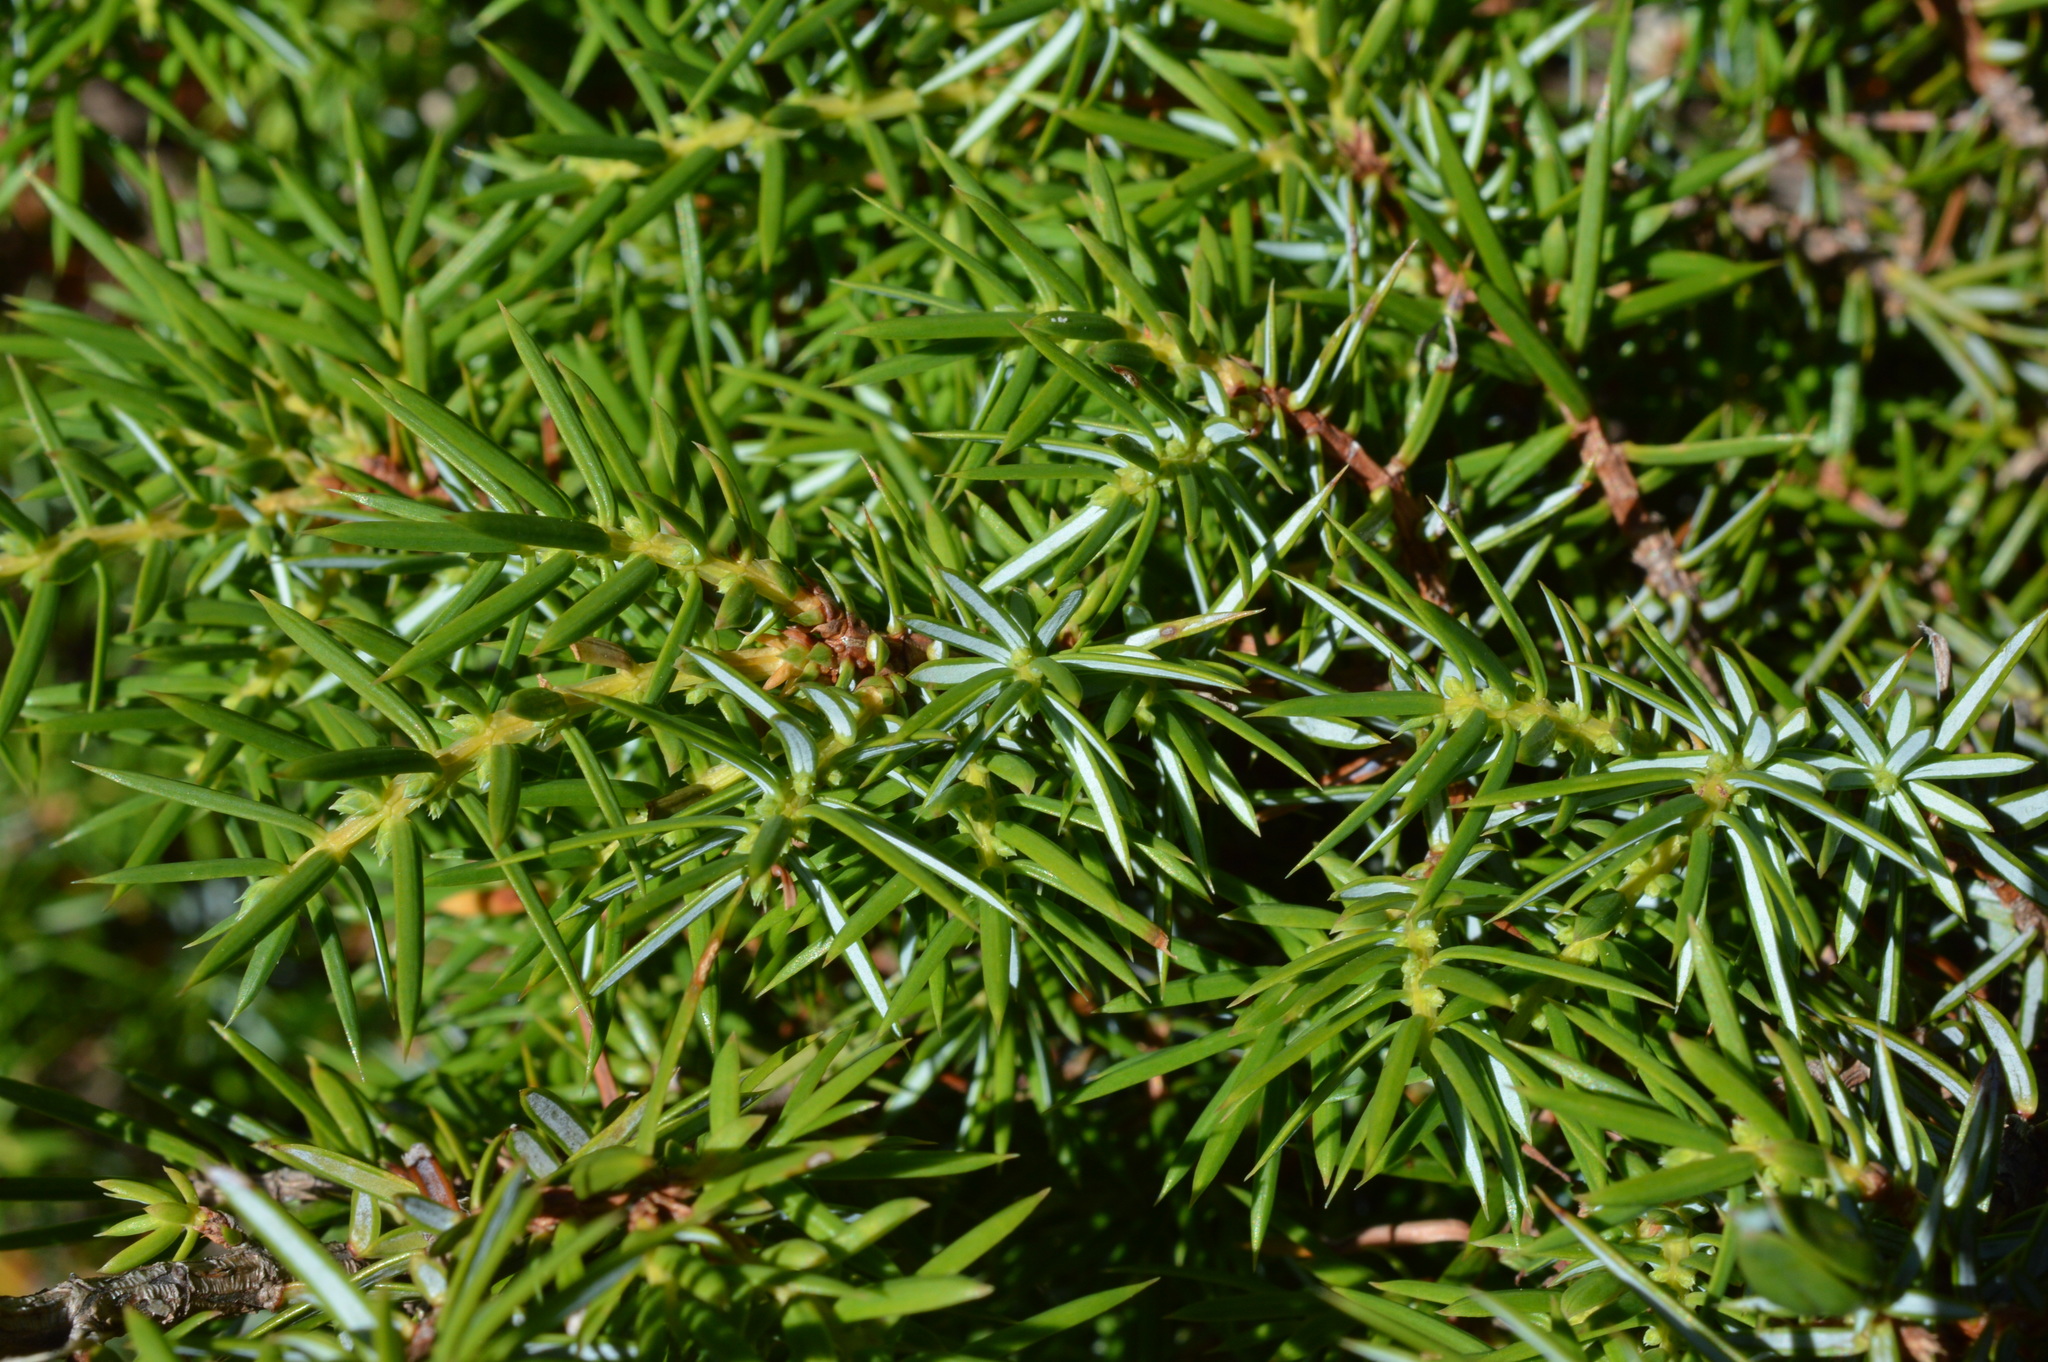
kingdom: Plantae
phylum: Tracheophyta
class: Pinopsida
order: Pinales
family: Cupressaceae
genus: Juniperus
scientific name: Juniperus communis
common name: Common juniper
